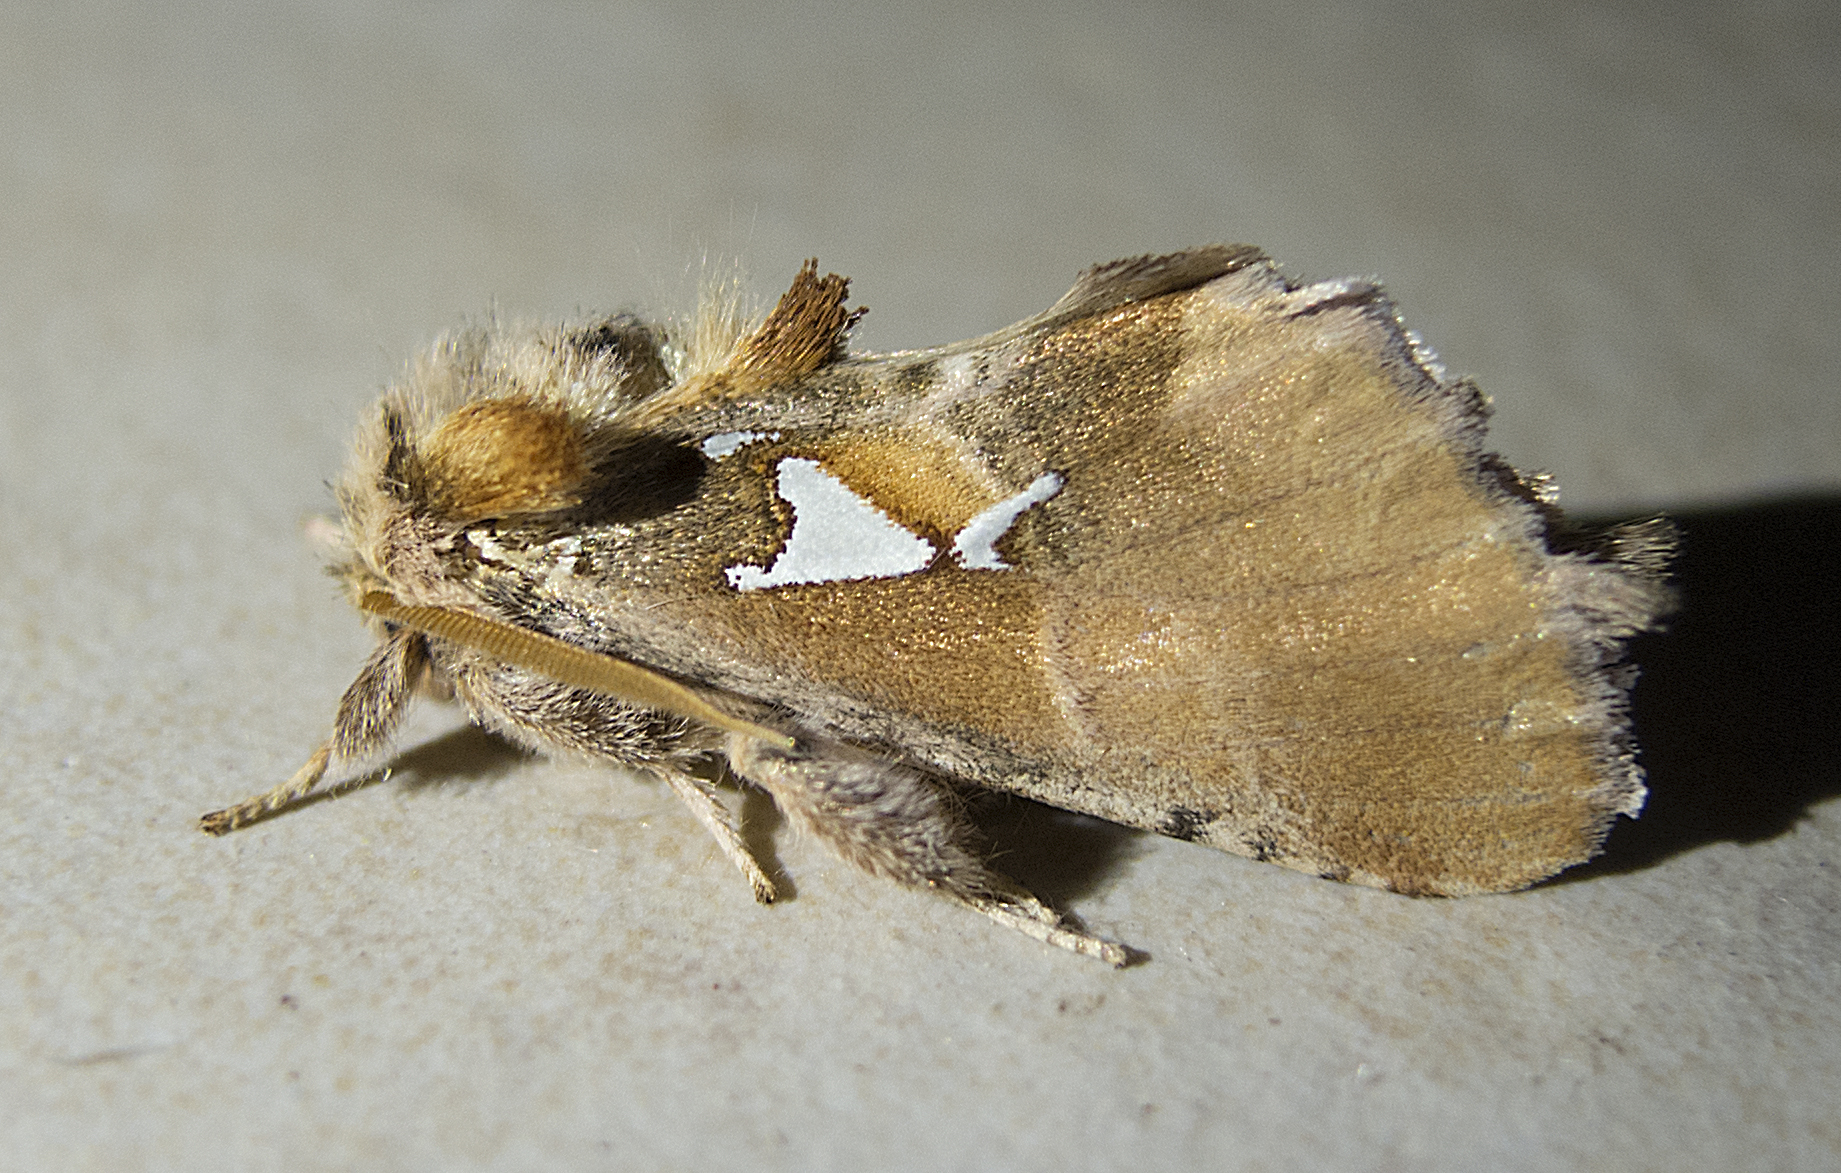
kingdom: Animalia
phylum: Arthropoda
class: Insecta
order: Lepidoptera
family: Notodontidae
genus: Spatalia
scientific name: Spatalia argentina
